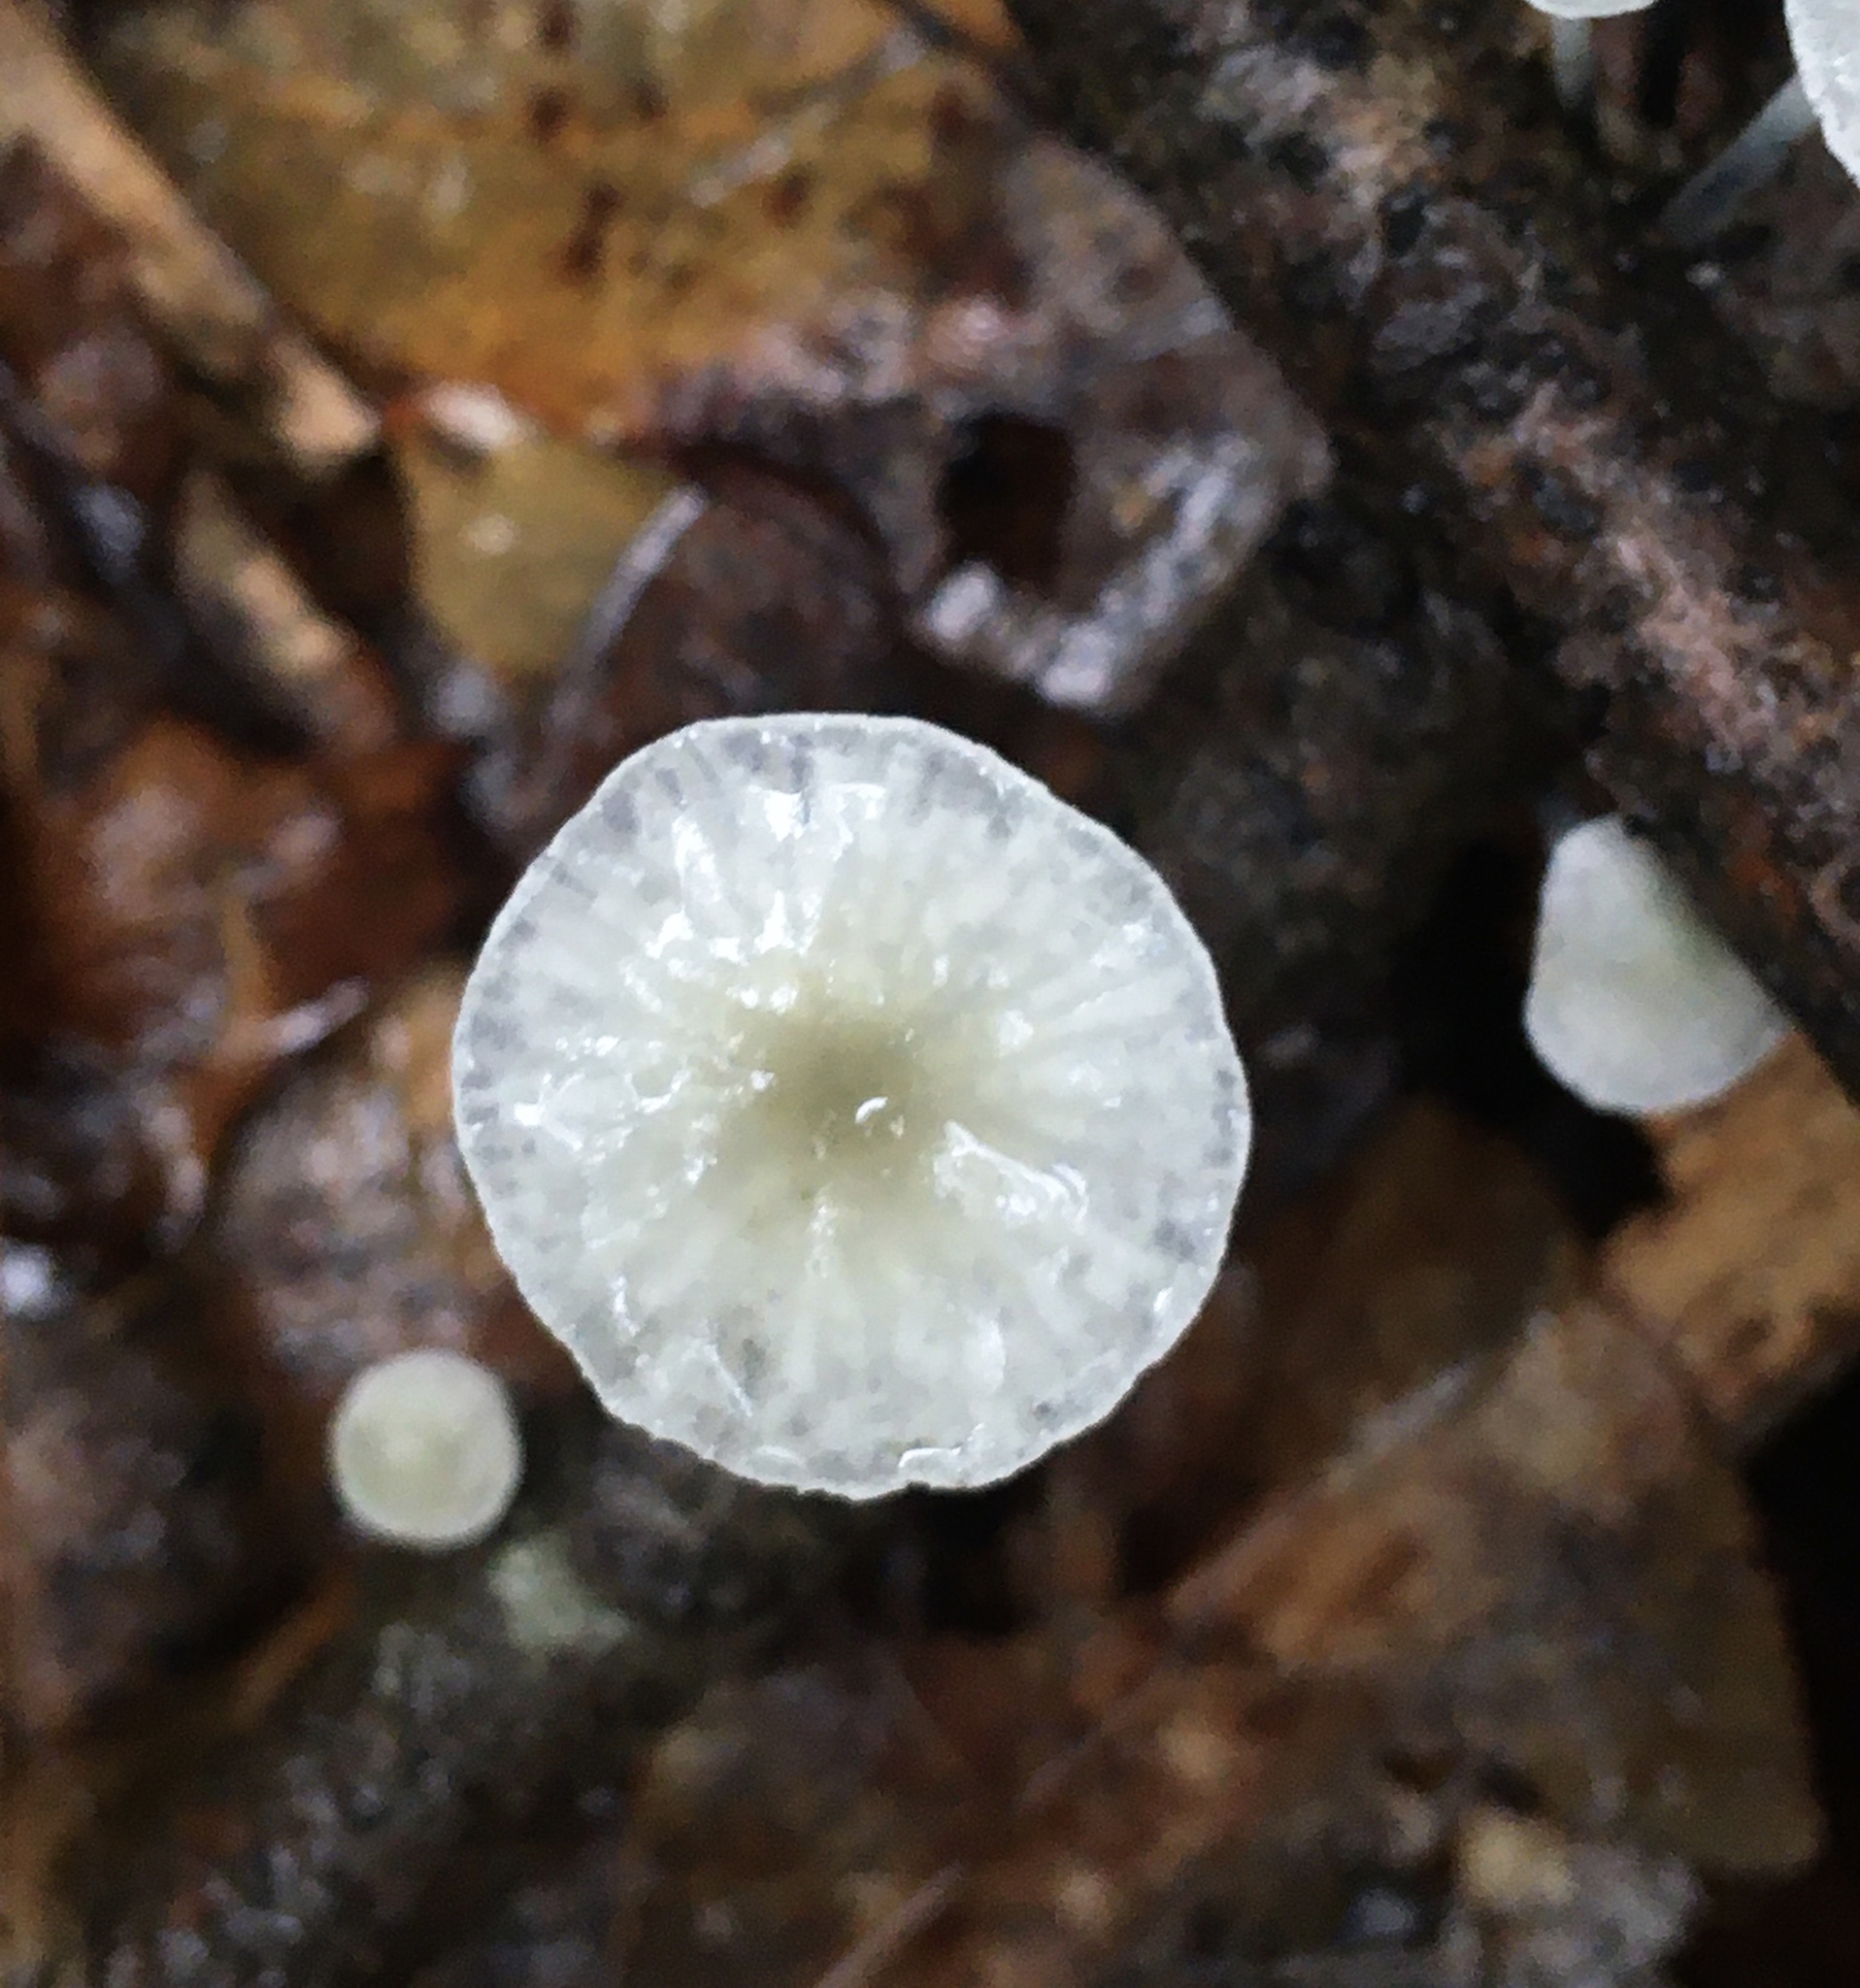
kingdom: Fungi
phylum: Basidiomycota
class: Agaricomycetes
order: Agaricales
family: Marasmiaceae
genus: Tetrapyrgos
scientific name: Tetrapyrgos nigripes
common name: Black-stalked marasmius
